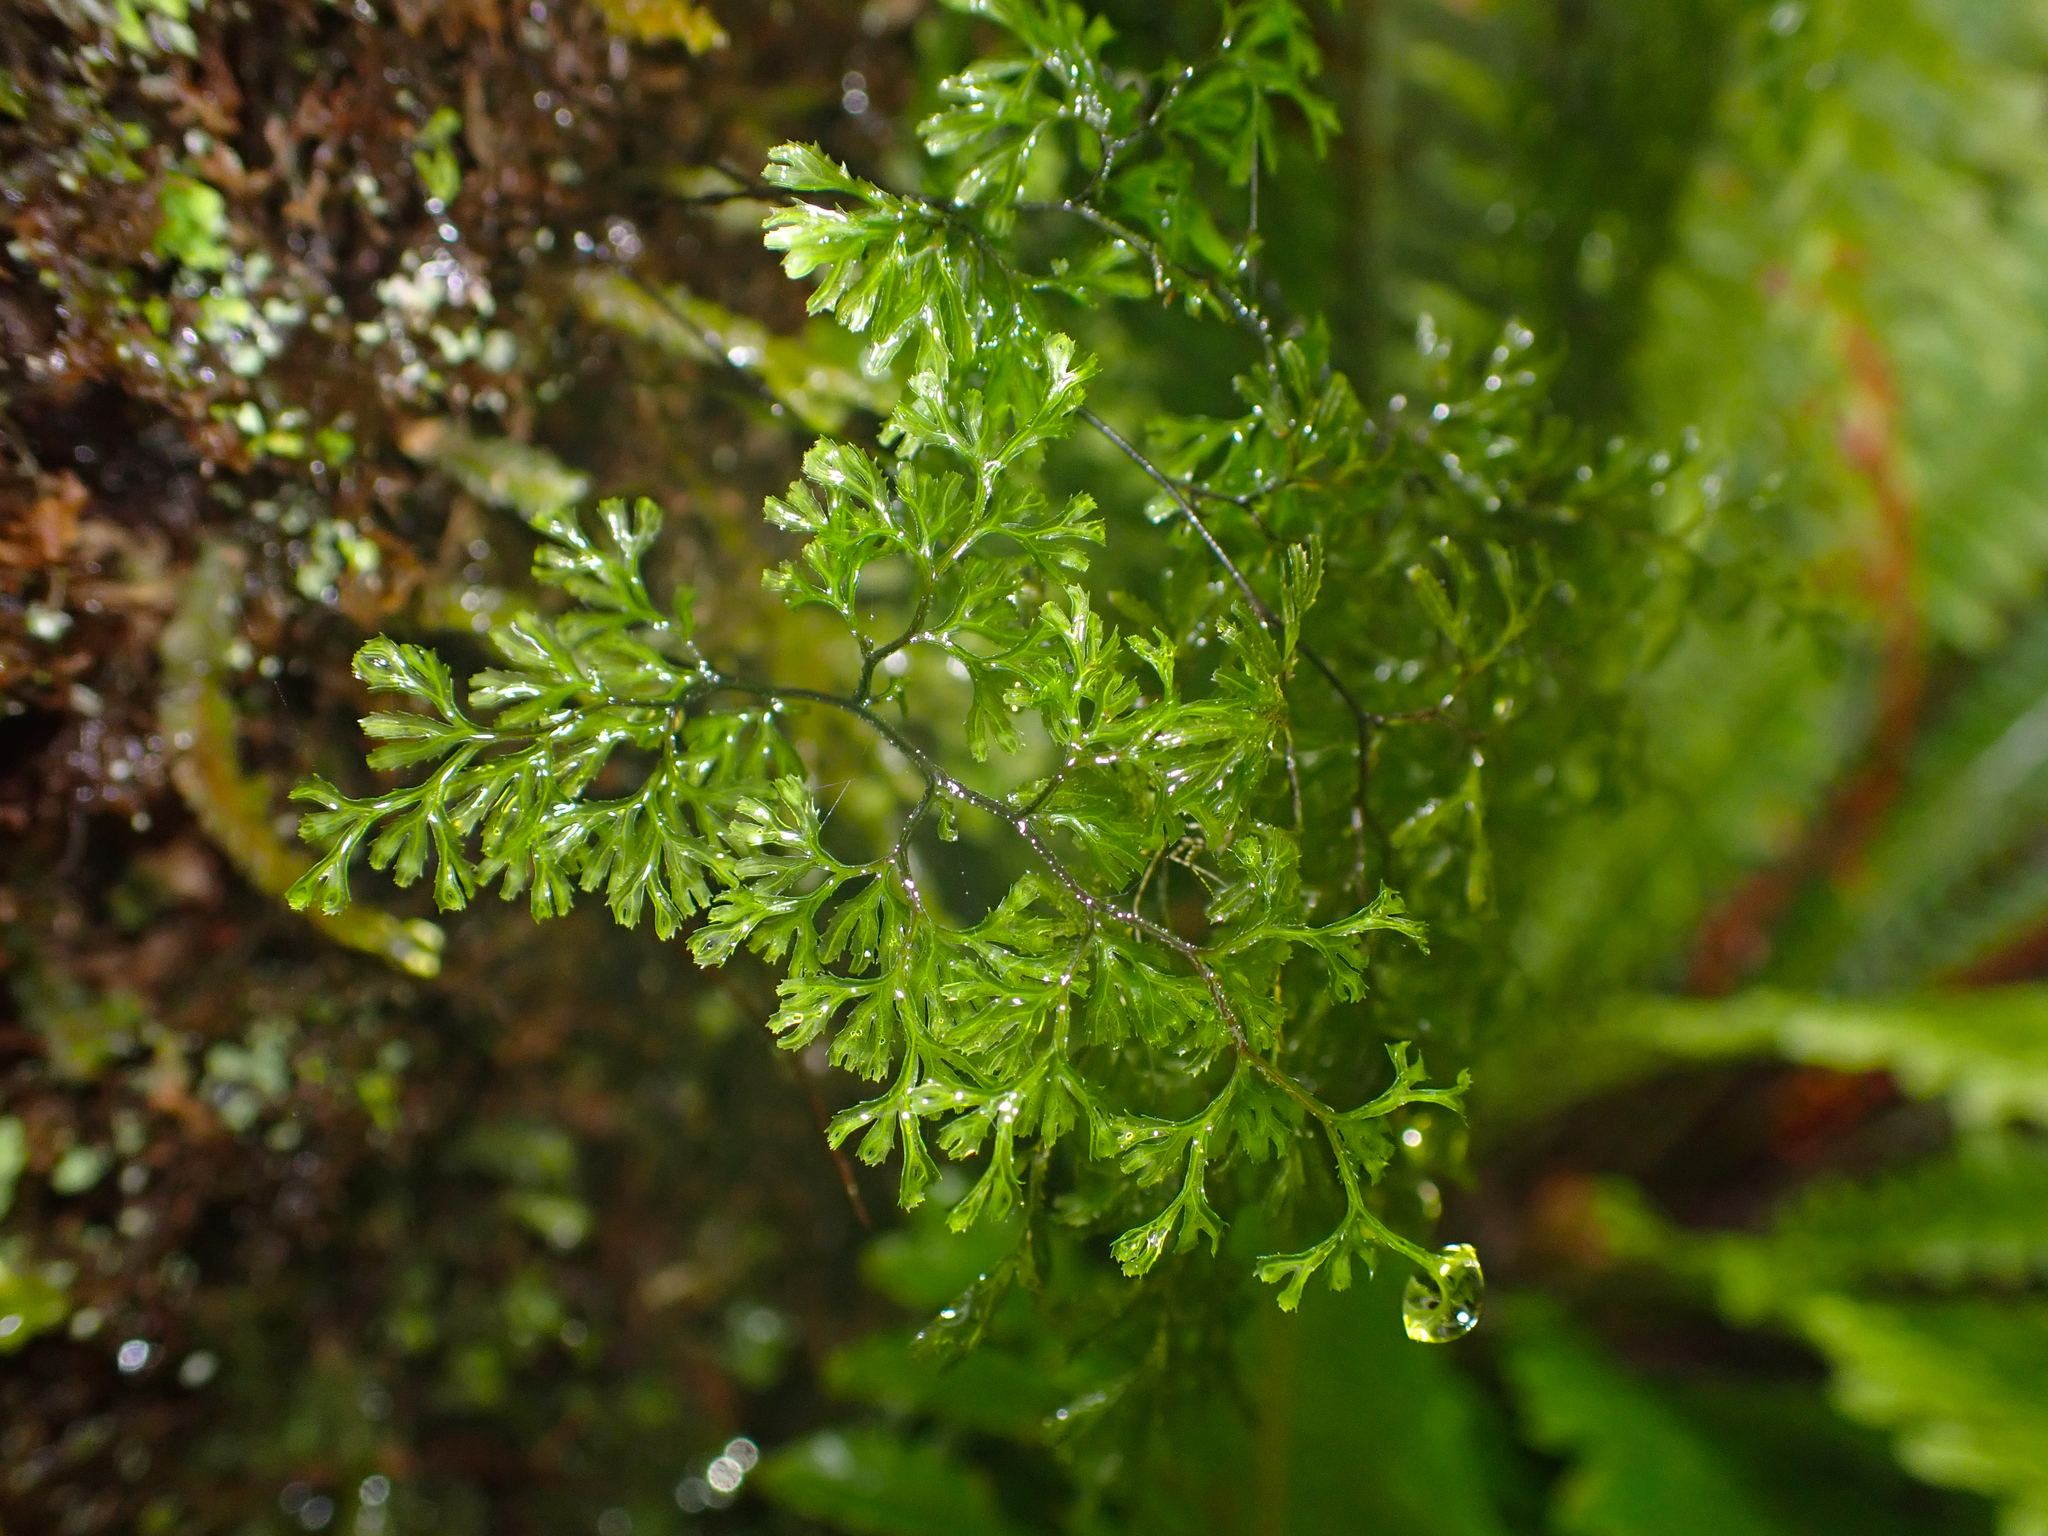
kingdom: Plantae
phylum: Tracheophyta
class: Polypodiopsida
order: Hymenophyllales
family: Hymenophyllaceae
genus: Hymenophyllum
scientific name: Hymenophyllum multifidum
